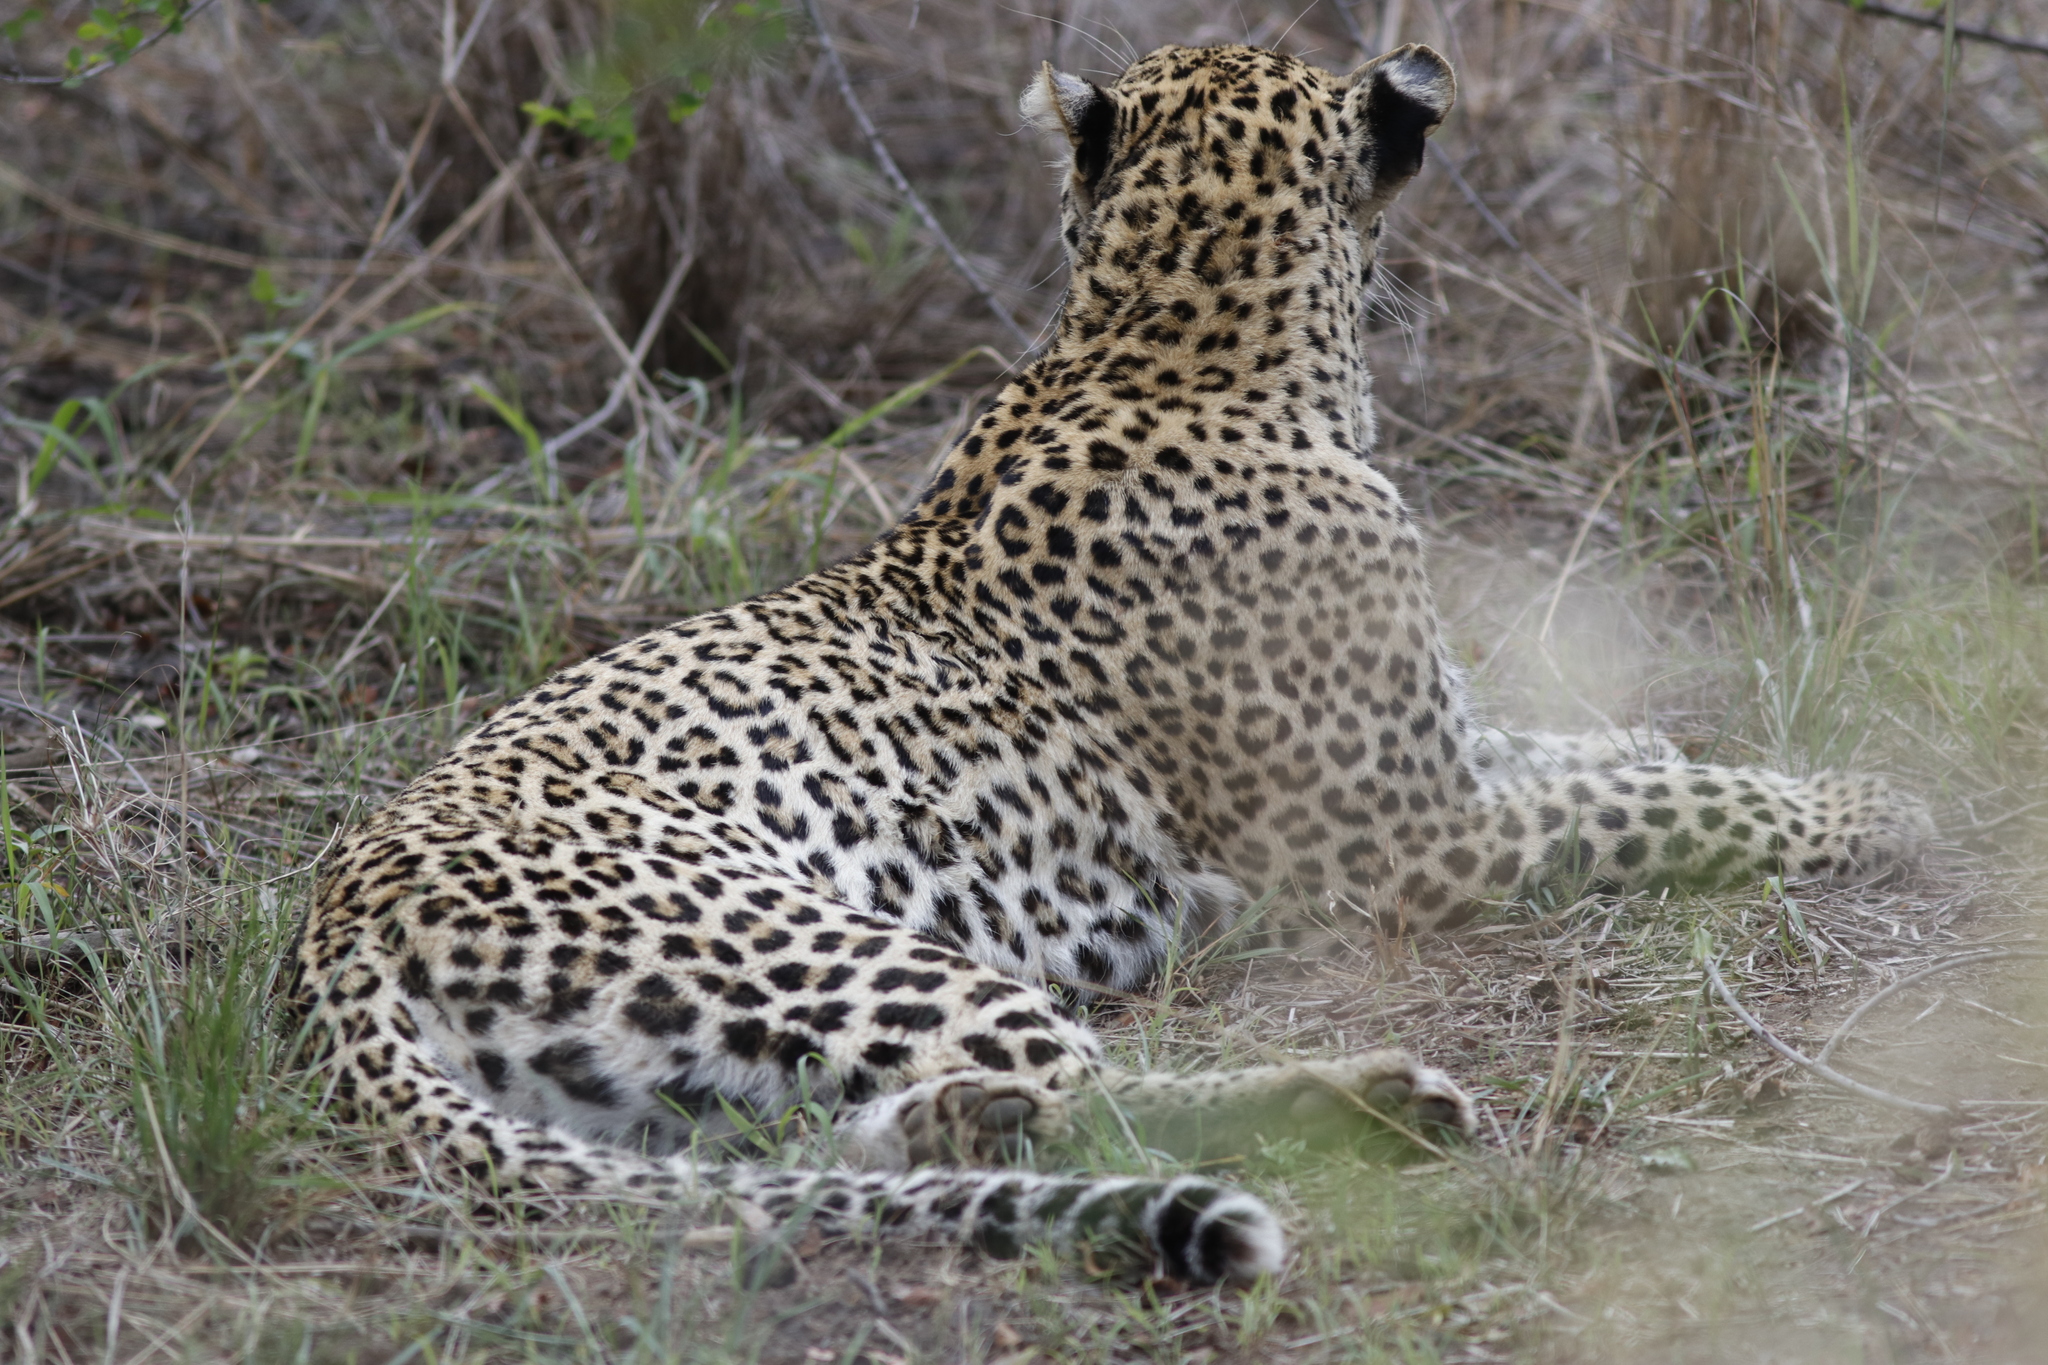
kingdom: Animalia
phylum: Chordata
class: Mammalia
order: Carnivora
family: Felidae
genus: Panthera
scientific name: Panthera pardus
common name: Leopard
